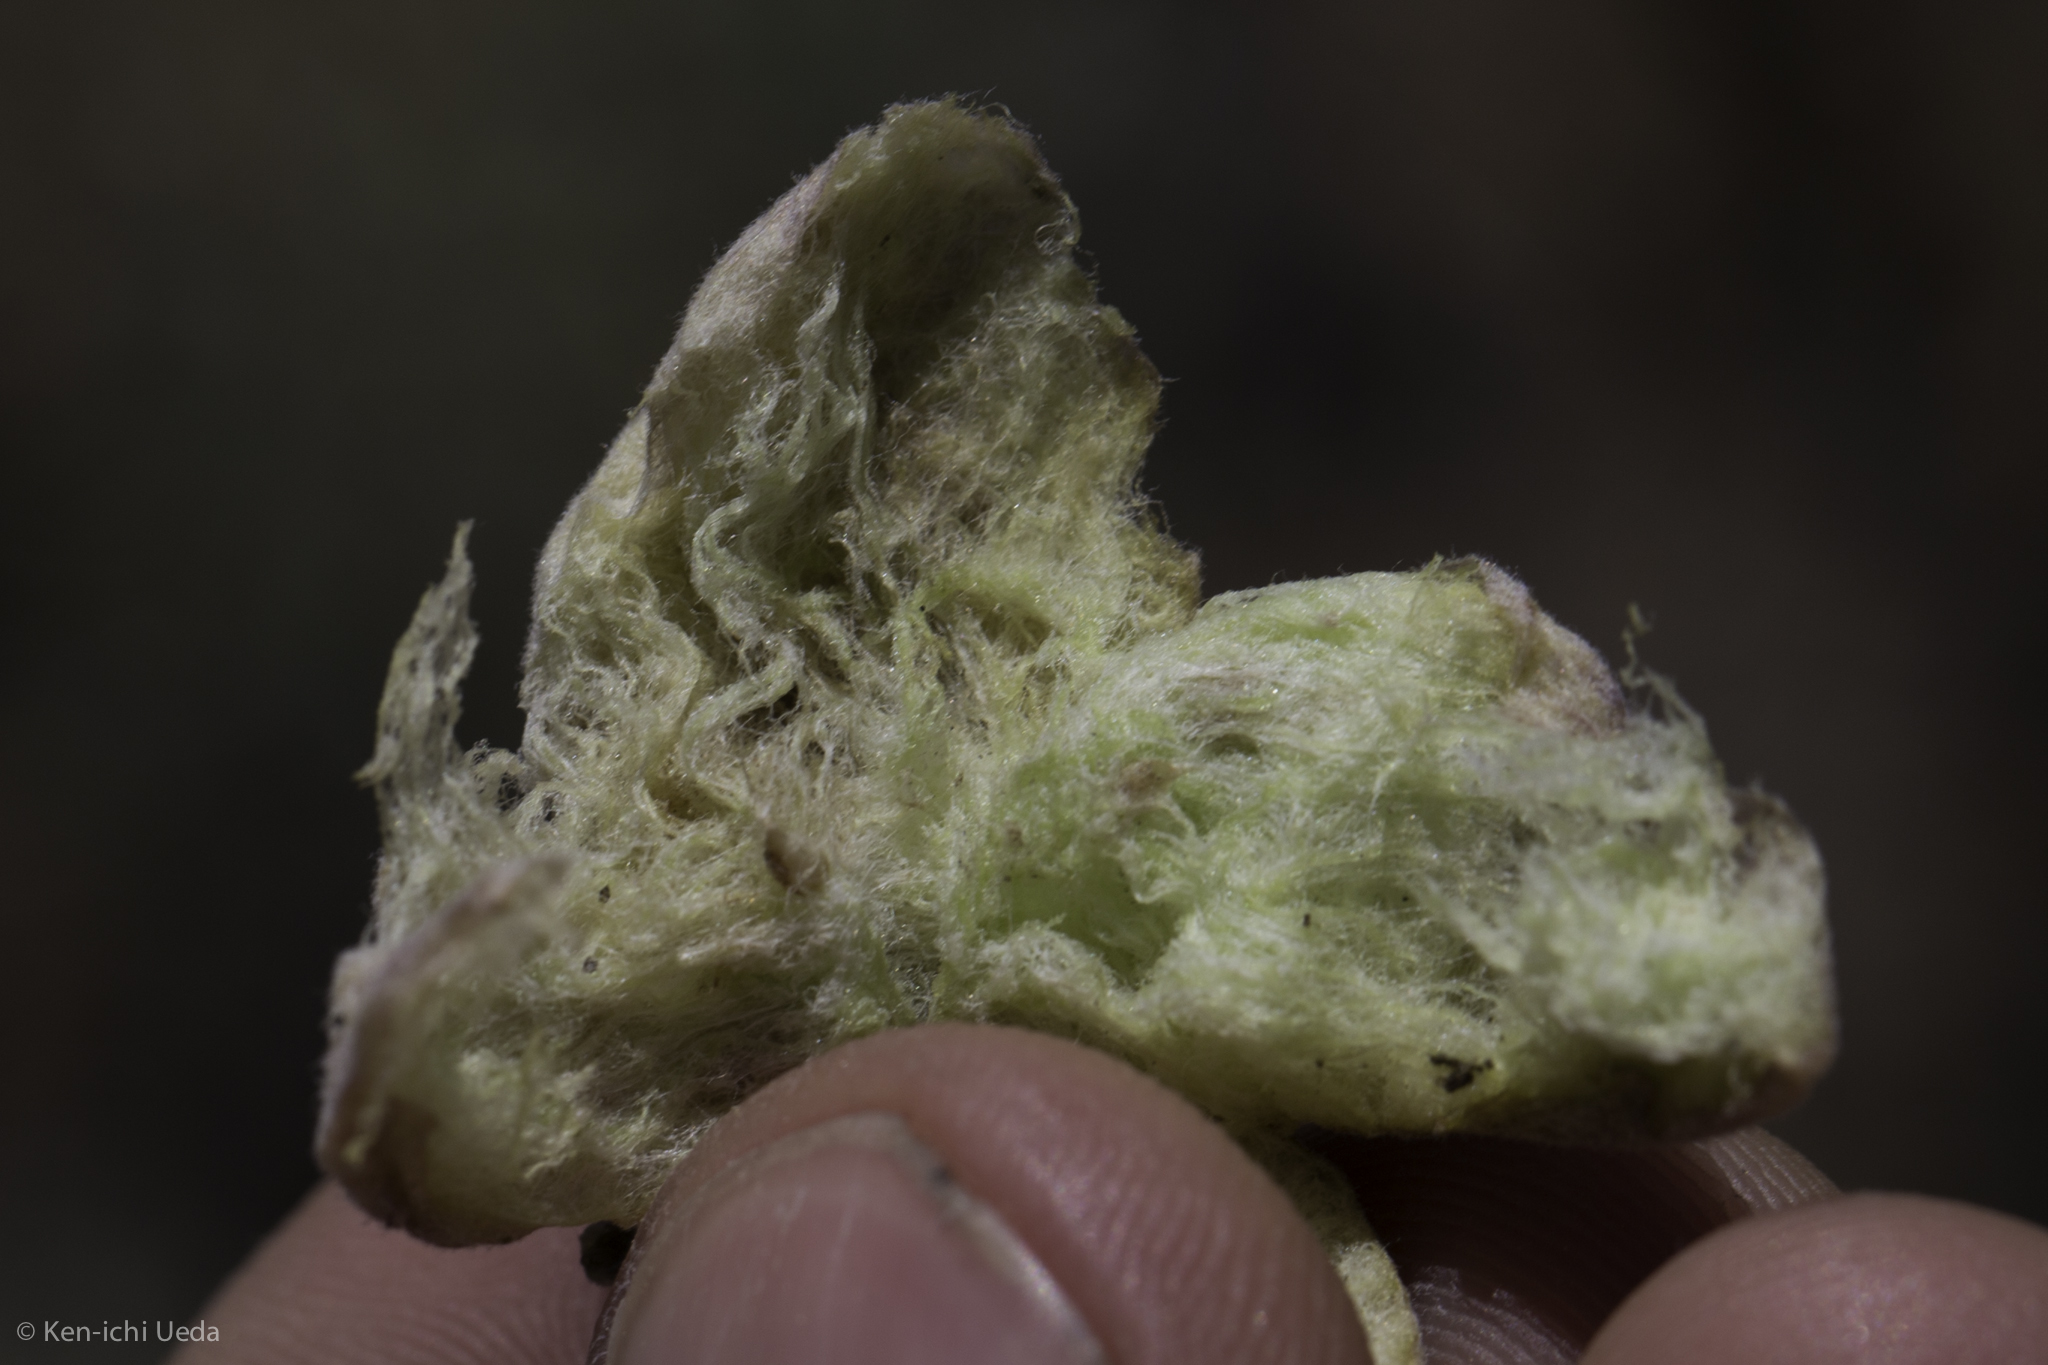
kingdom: Animalia
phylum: Arthropoda
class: Insecta
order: Diptera
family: Cecidomyiidae
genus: Rhopalomyia
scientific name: Rhopalomyia pomum
